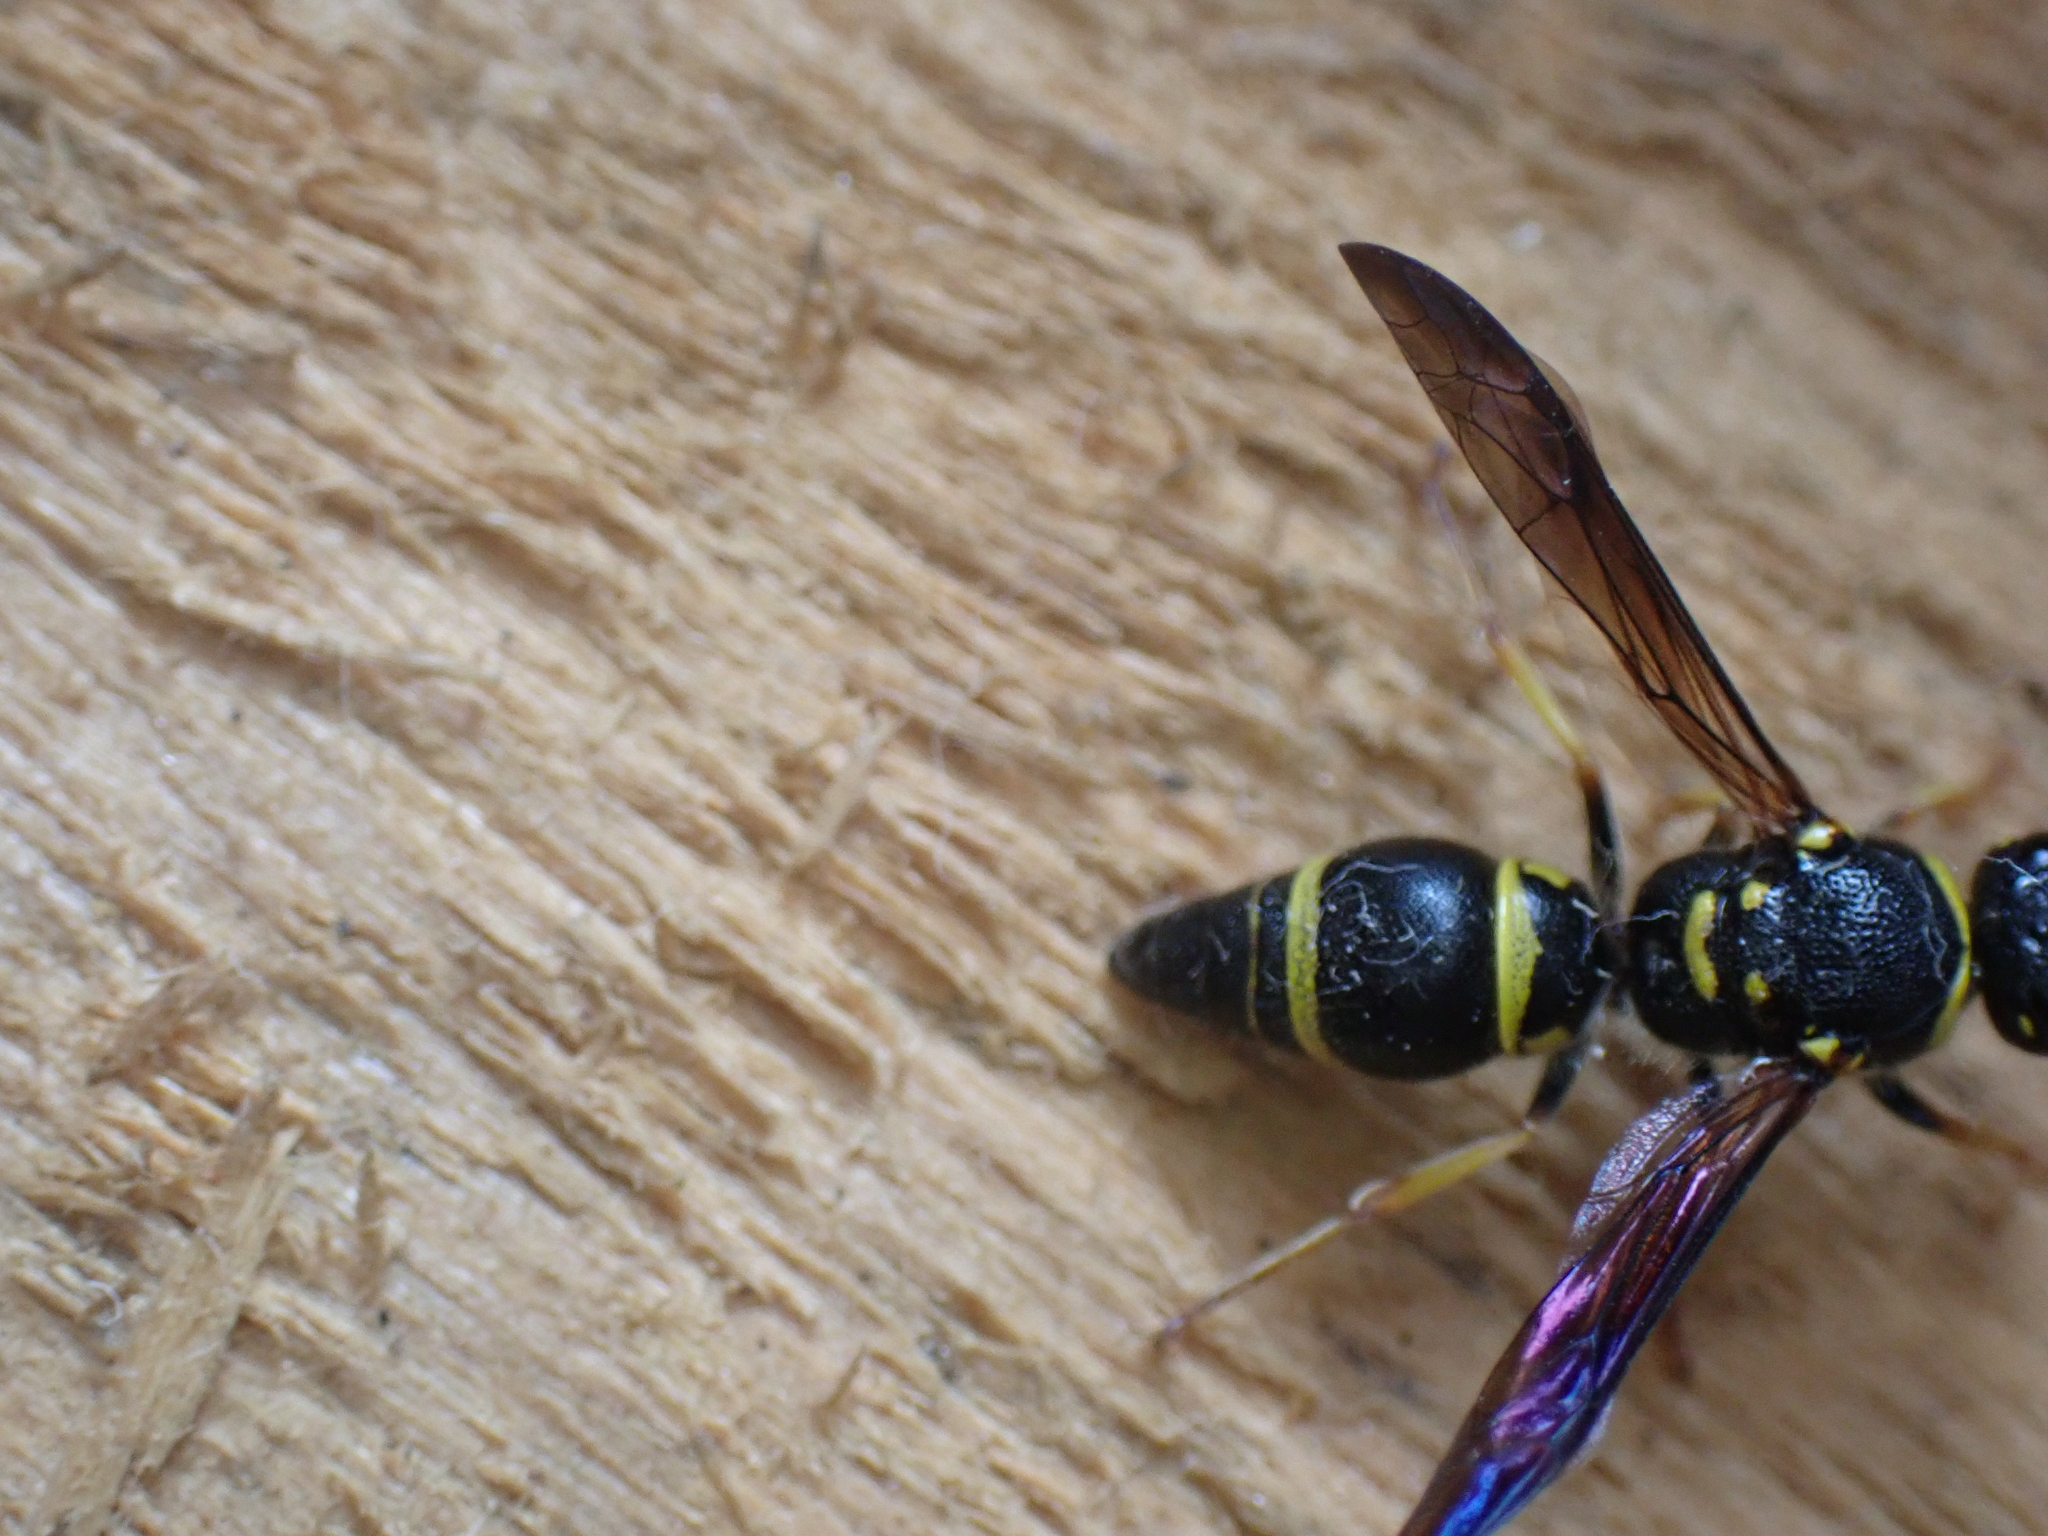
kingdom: Animalia
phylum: Arthropoda
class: Insecta
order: Hymenoptera
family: Vespidae
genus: Ancistrocerus
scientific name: Ancistrocerus campestris
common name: Smiling mason wasp
